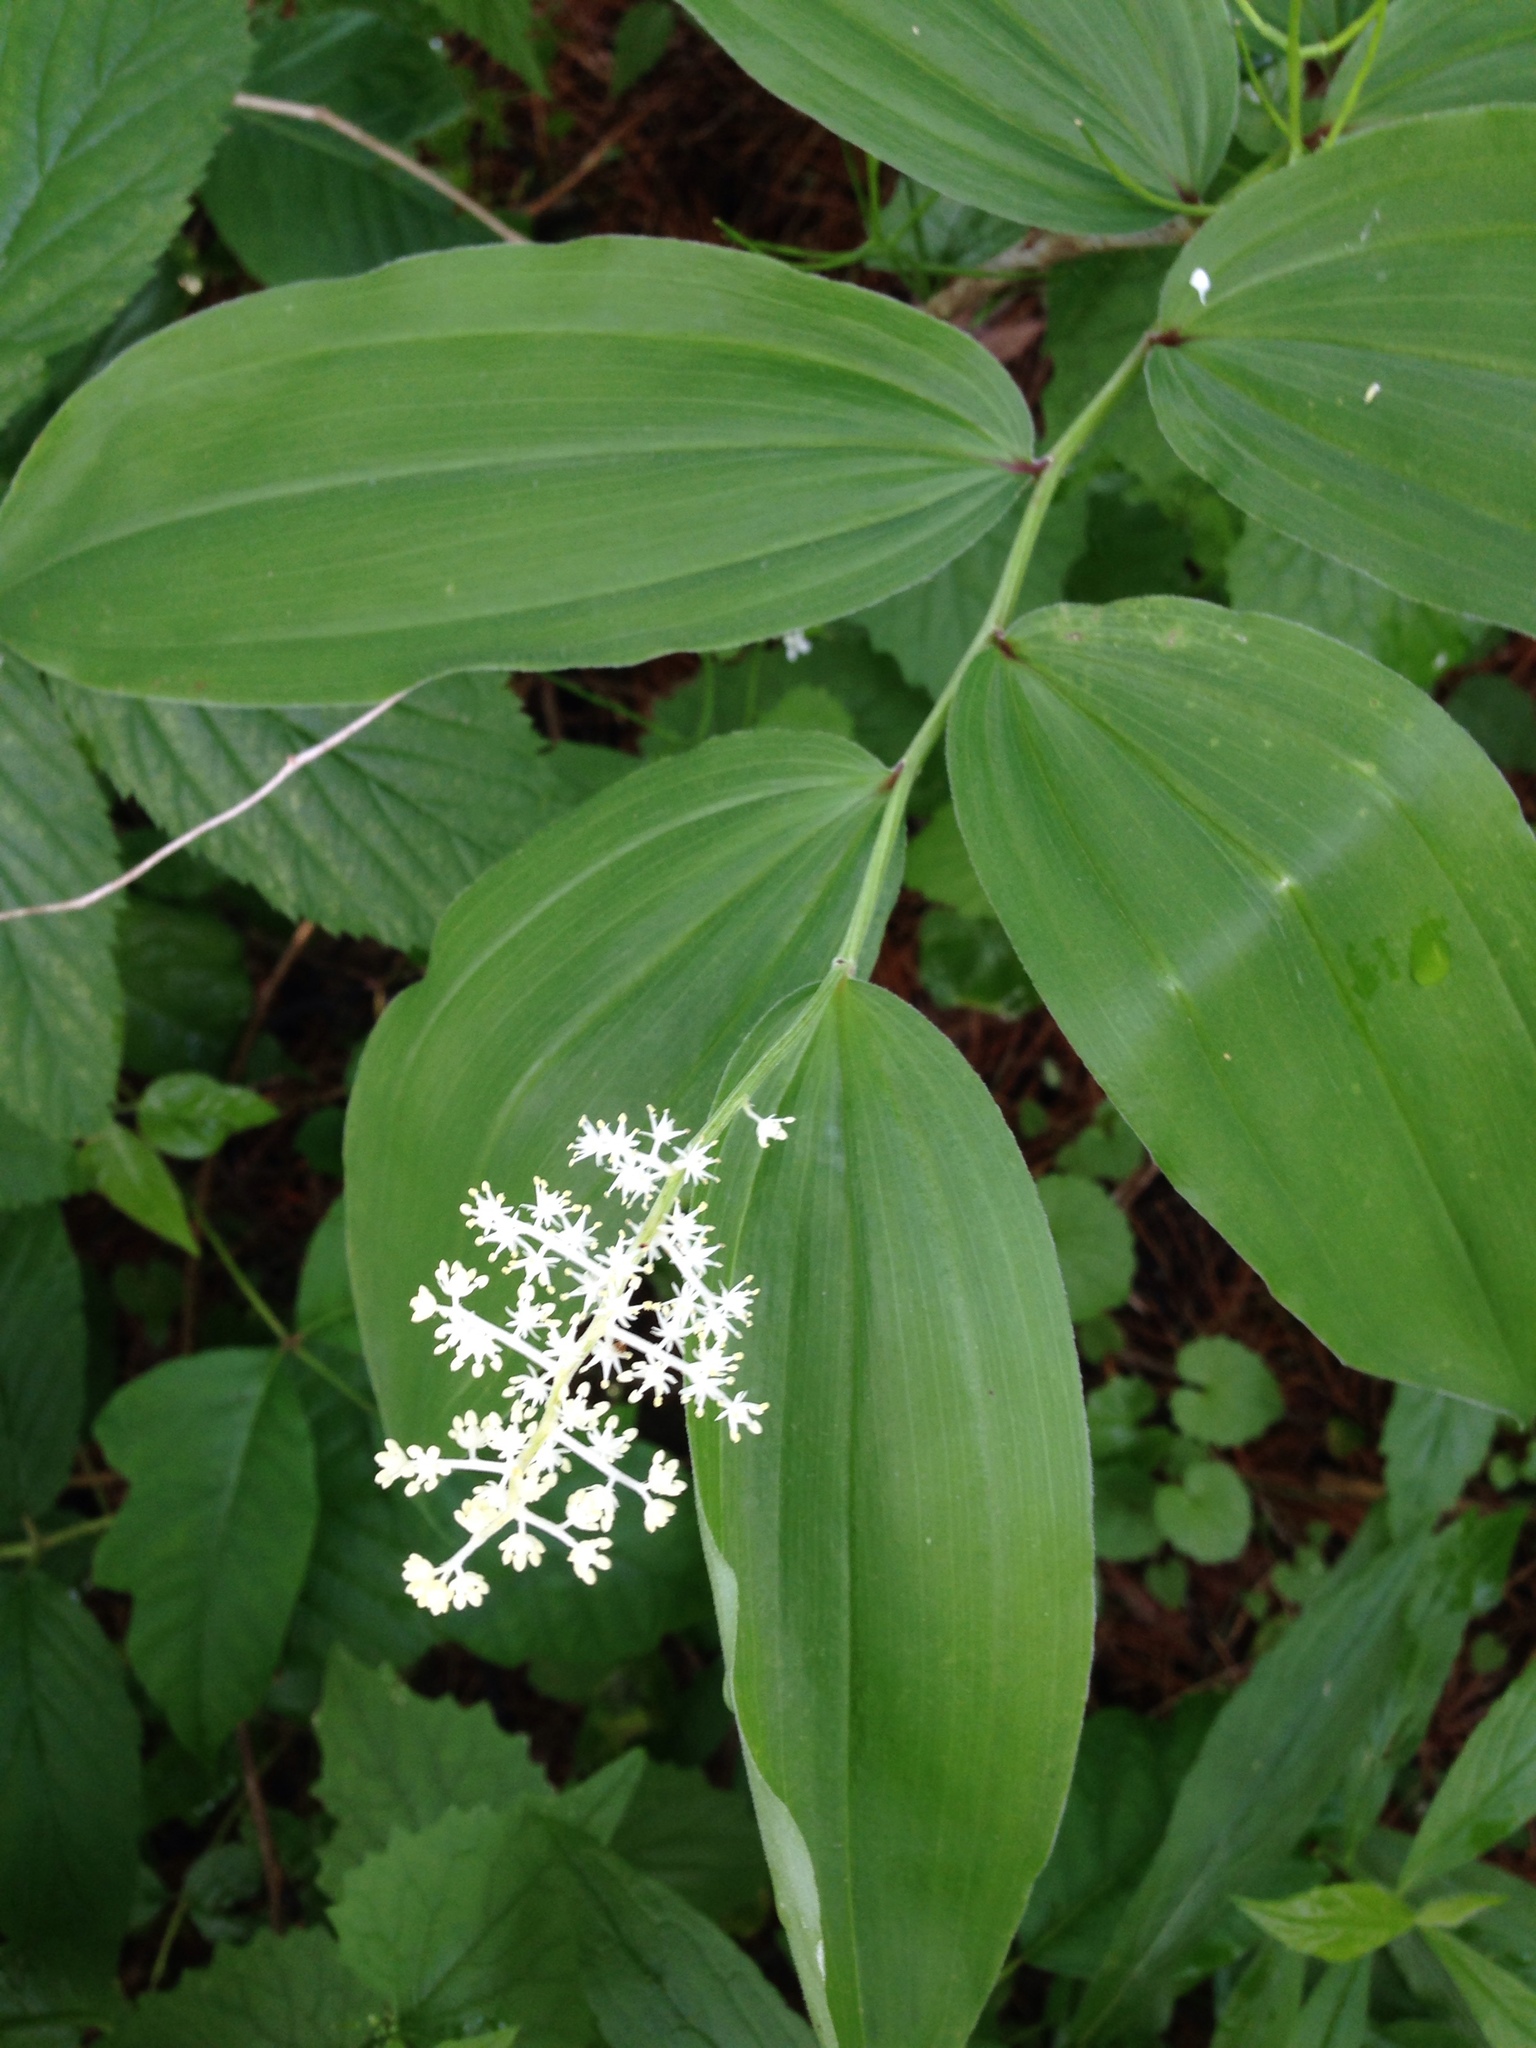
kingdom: Plantae
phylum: Tracheophyta
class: Liliopsida
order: Asparagales
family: Asparagaceae
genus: Maianthemum
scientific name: Maianthemum racemosum
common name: False spikenard
